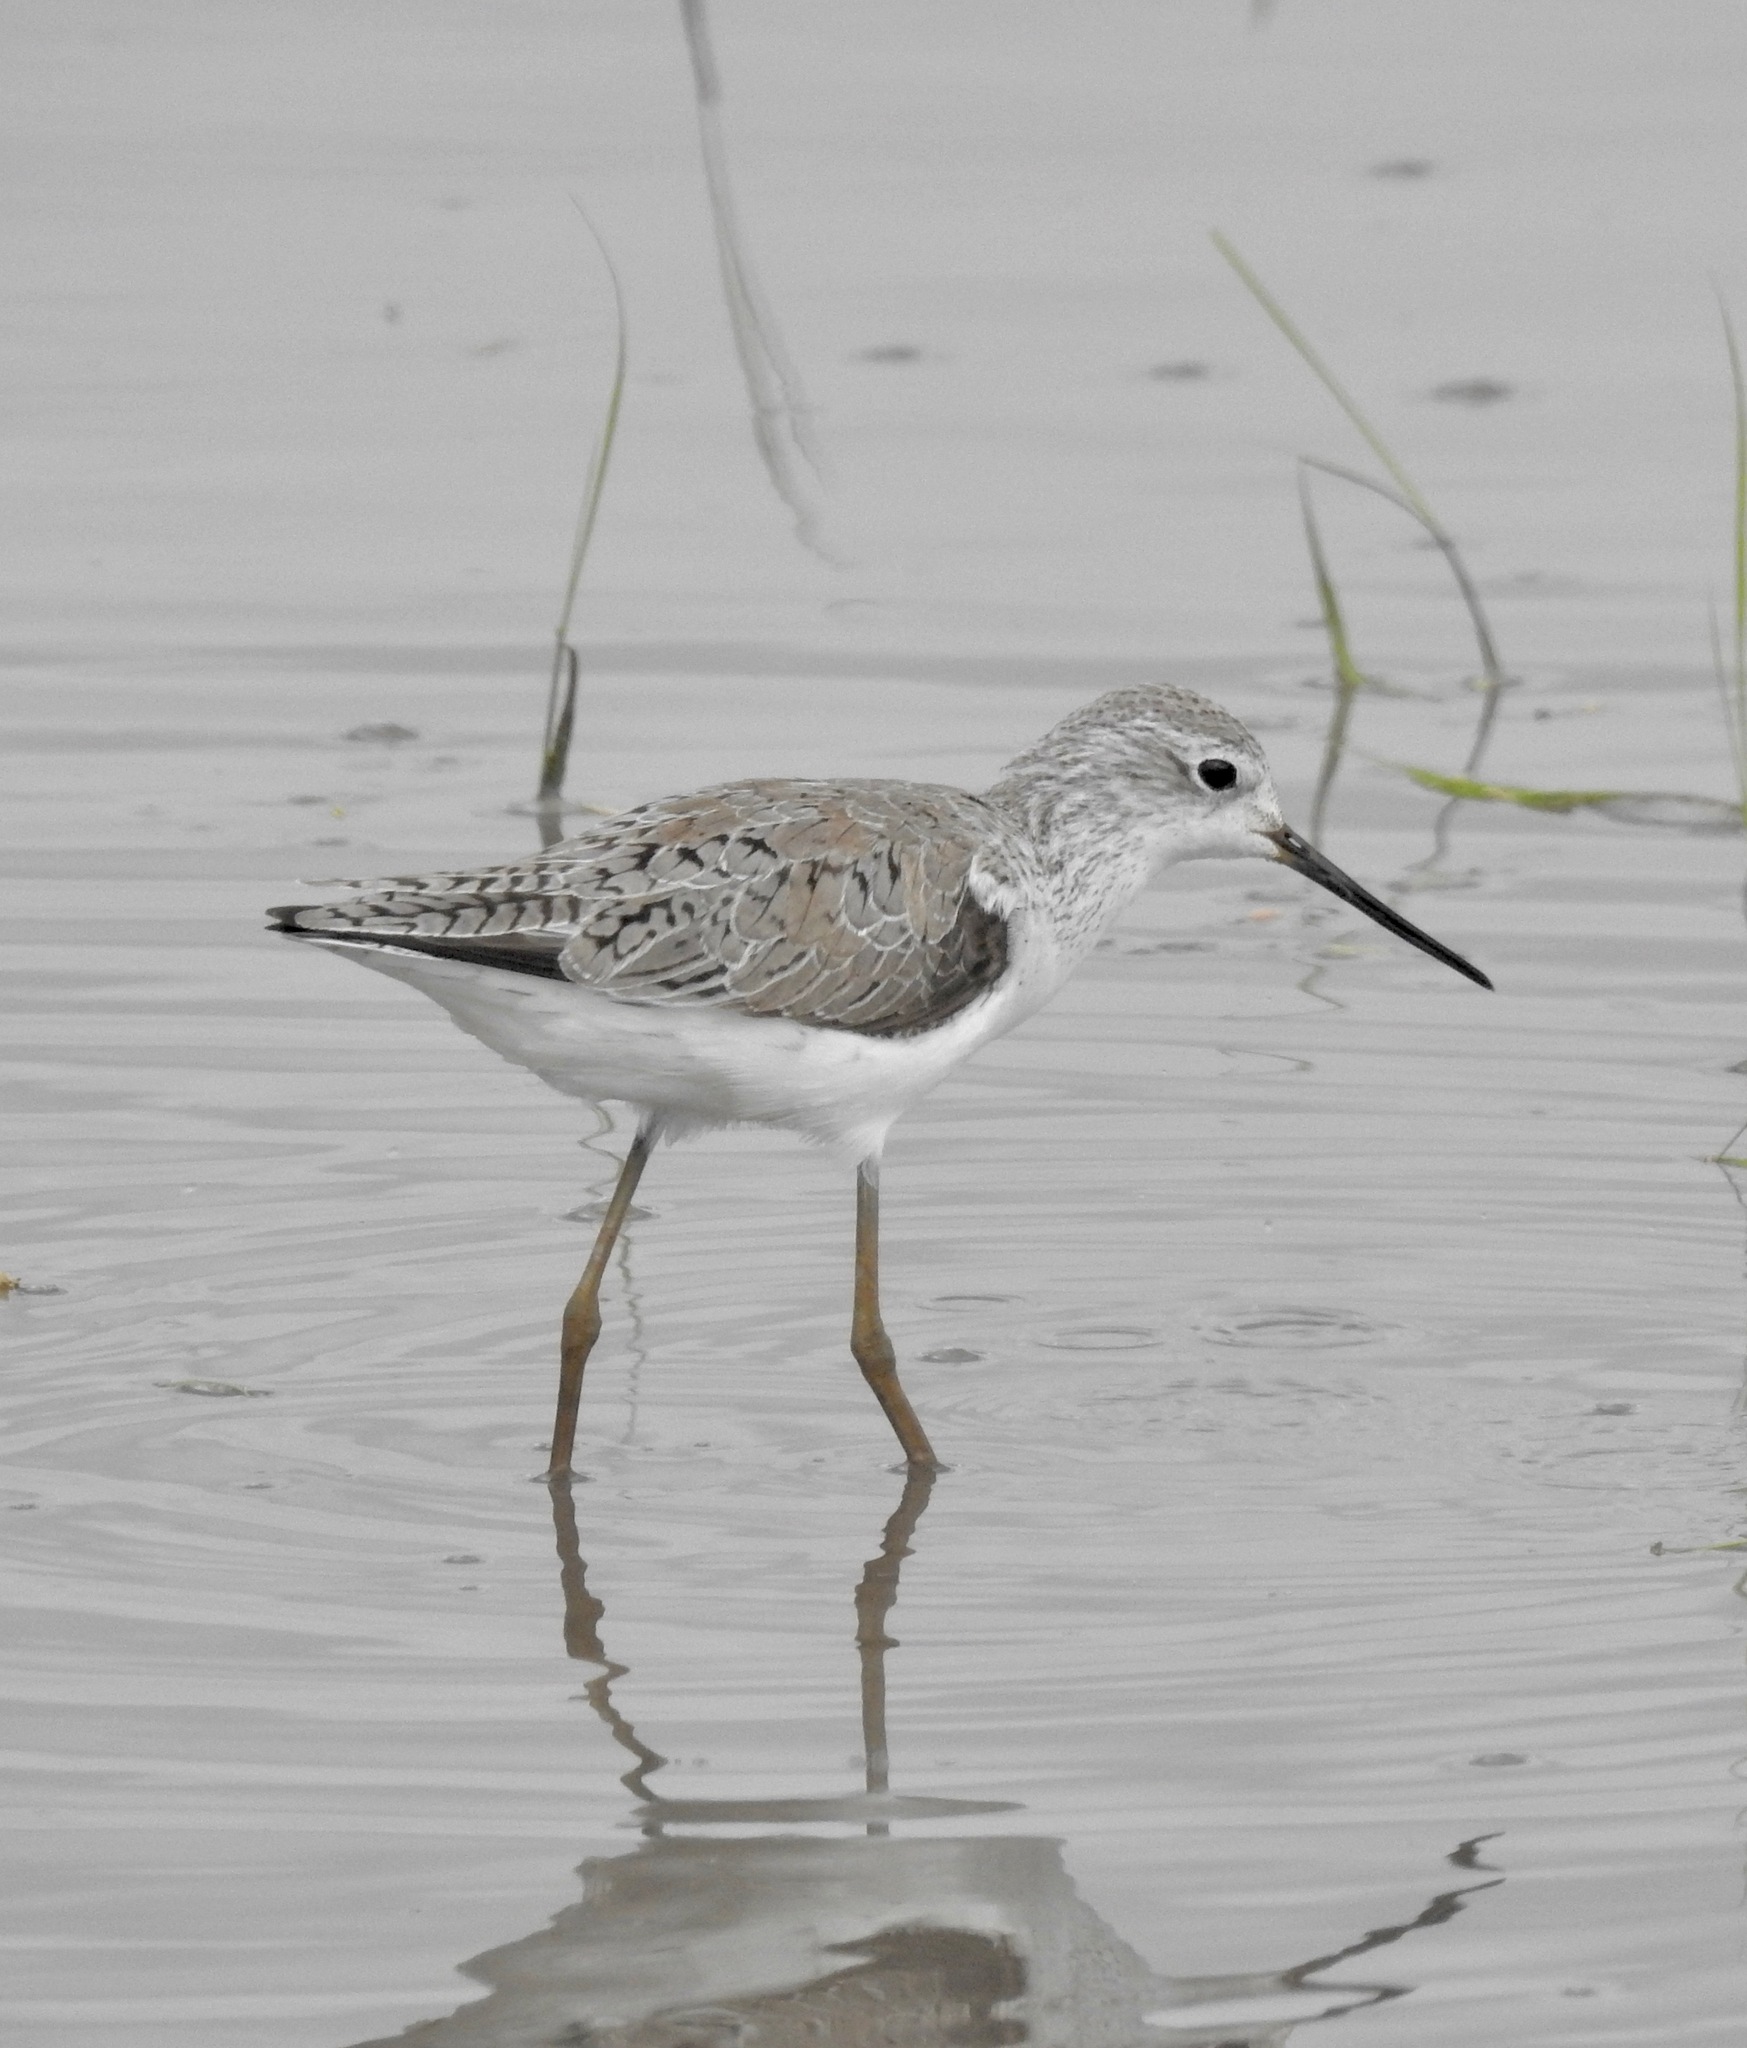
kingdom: Animalia
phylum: Chordata
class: Aves
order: Charadriiformes
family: Scolopacidae
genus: Tringa
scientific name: Tringa stagnatilis
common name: Marsh sandpiper
